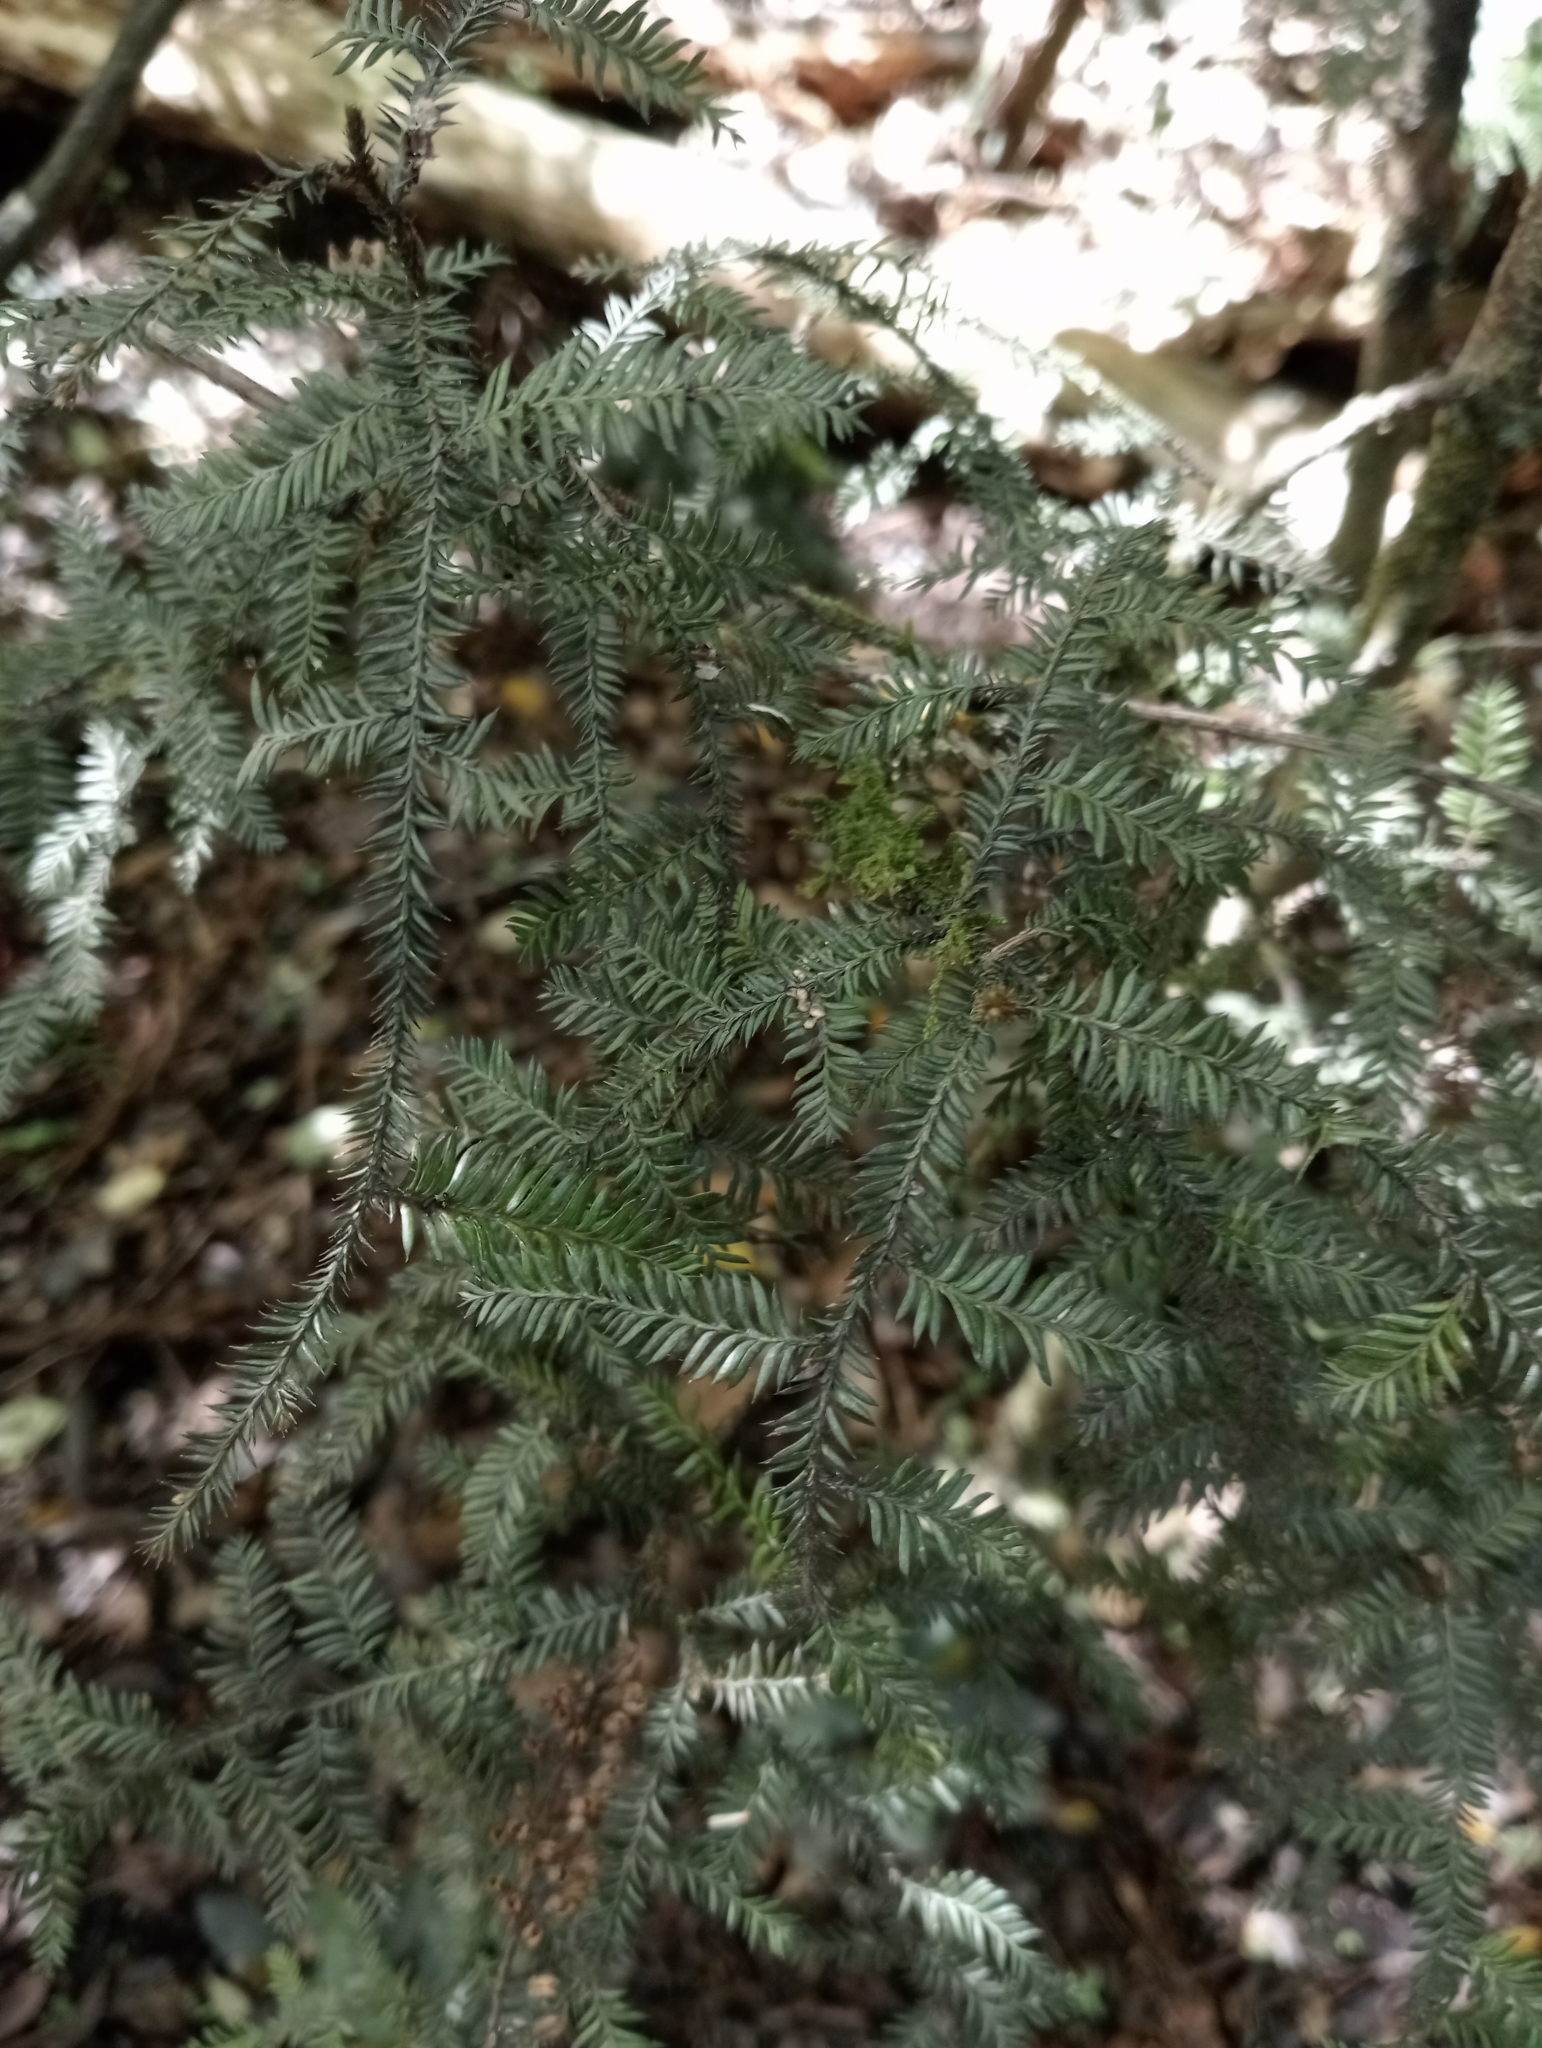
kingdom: Plantae
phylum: Tracheophyta
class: Pinopsida
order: Pinales
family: Podocarpaceae
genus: Dacrycarpus
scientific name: Dacrycarpus dacrydioides
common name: White pine
